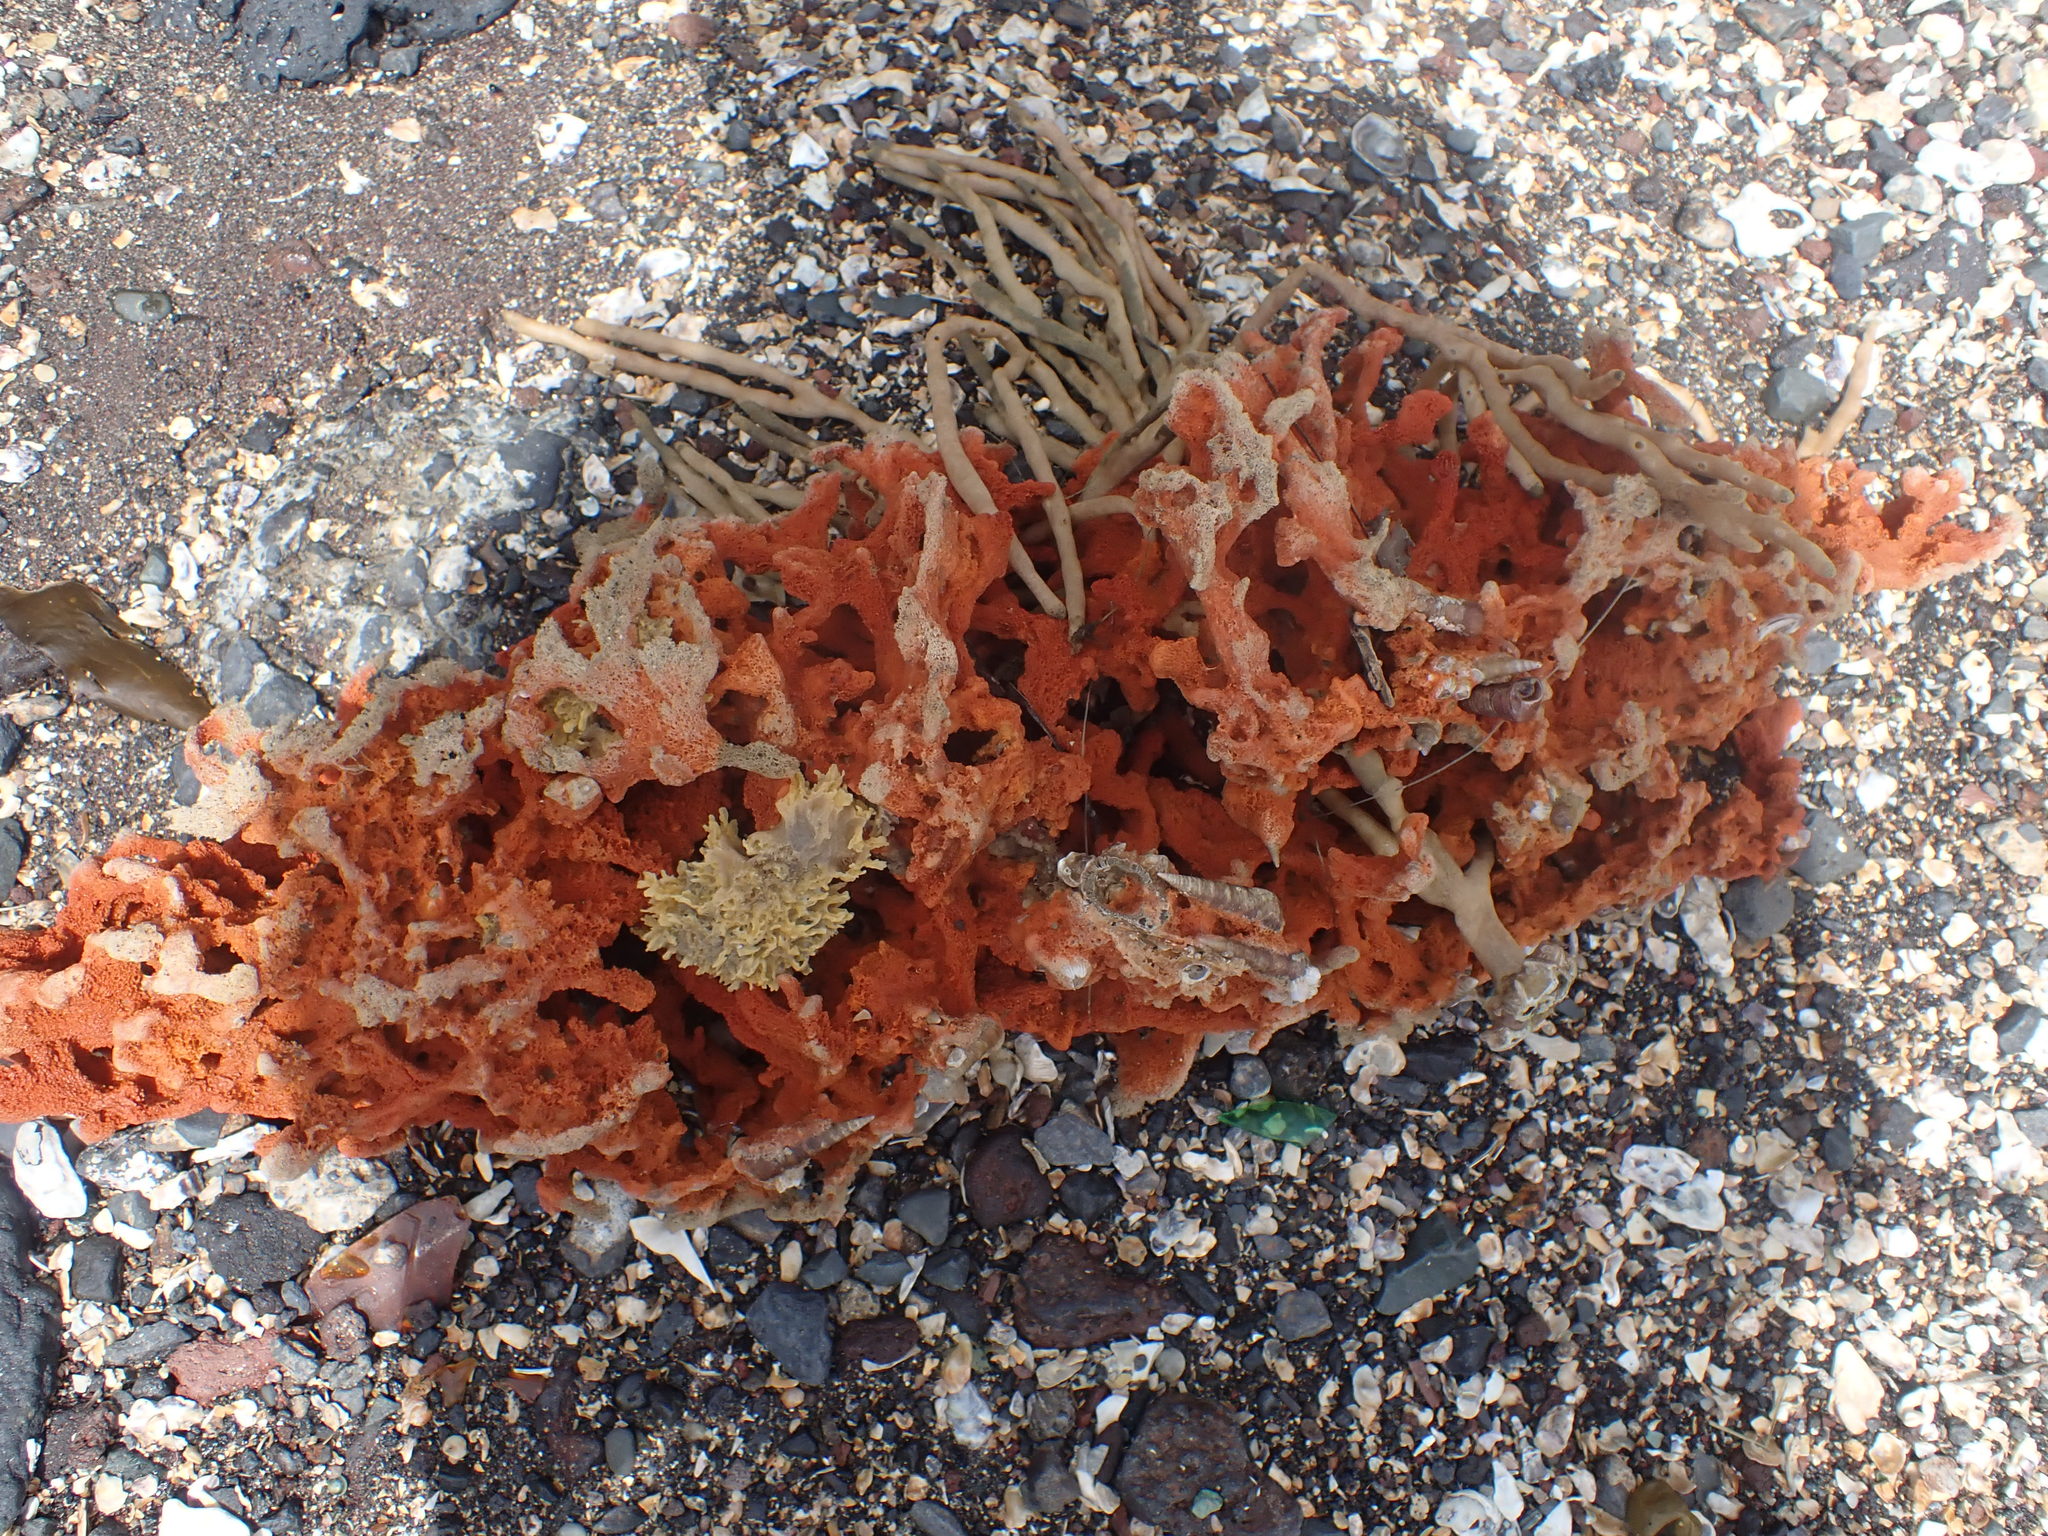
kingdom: Animalia
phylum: Porifera
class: Demospongiae
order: Poecilosclerida
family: Crellidae
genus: Crella
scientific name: Crella incrustans
